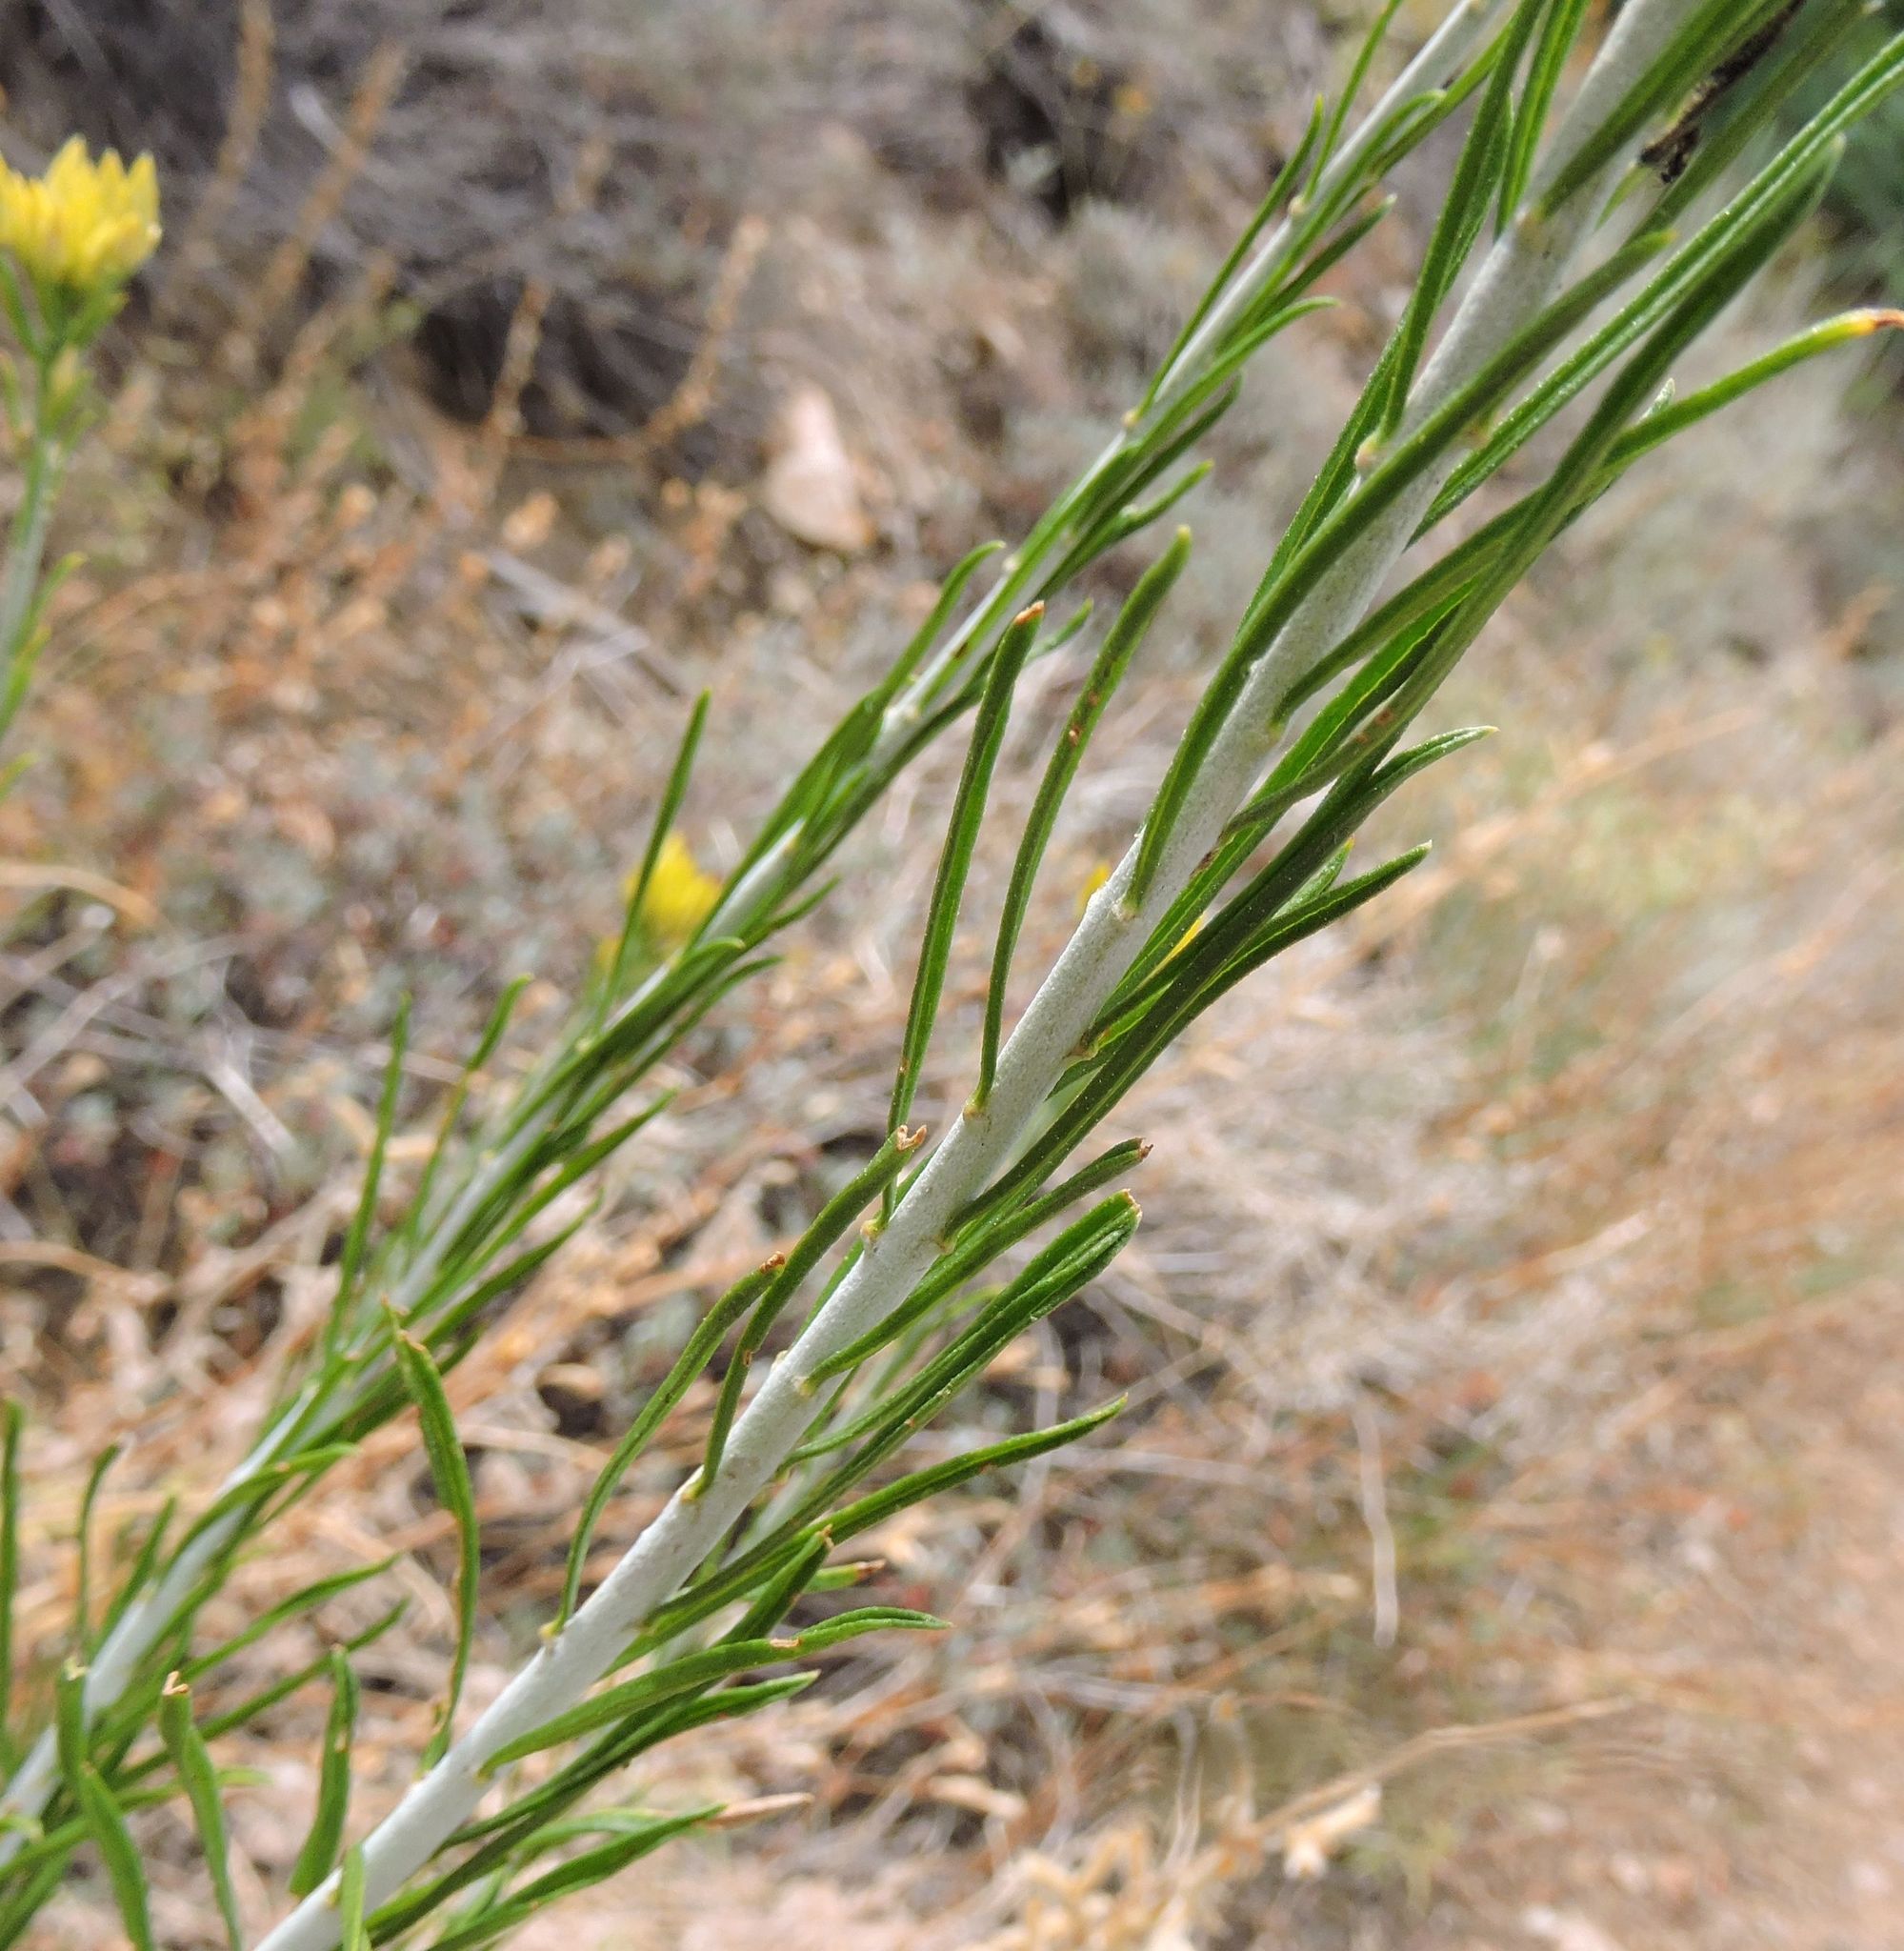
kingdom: Plantae
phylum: Tracheophyta
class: Magnoliopsida
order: Asterales
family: Asteraceae
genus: Ericameria
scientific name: Ericameria nauseosa
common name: Rubber rabbitbrush
